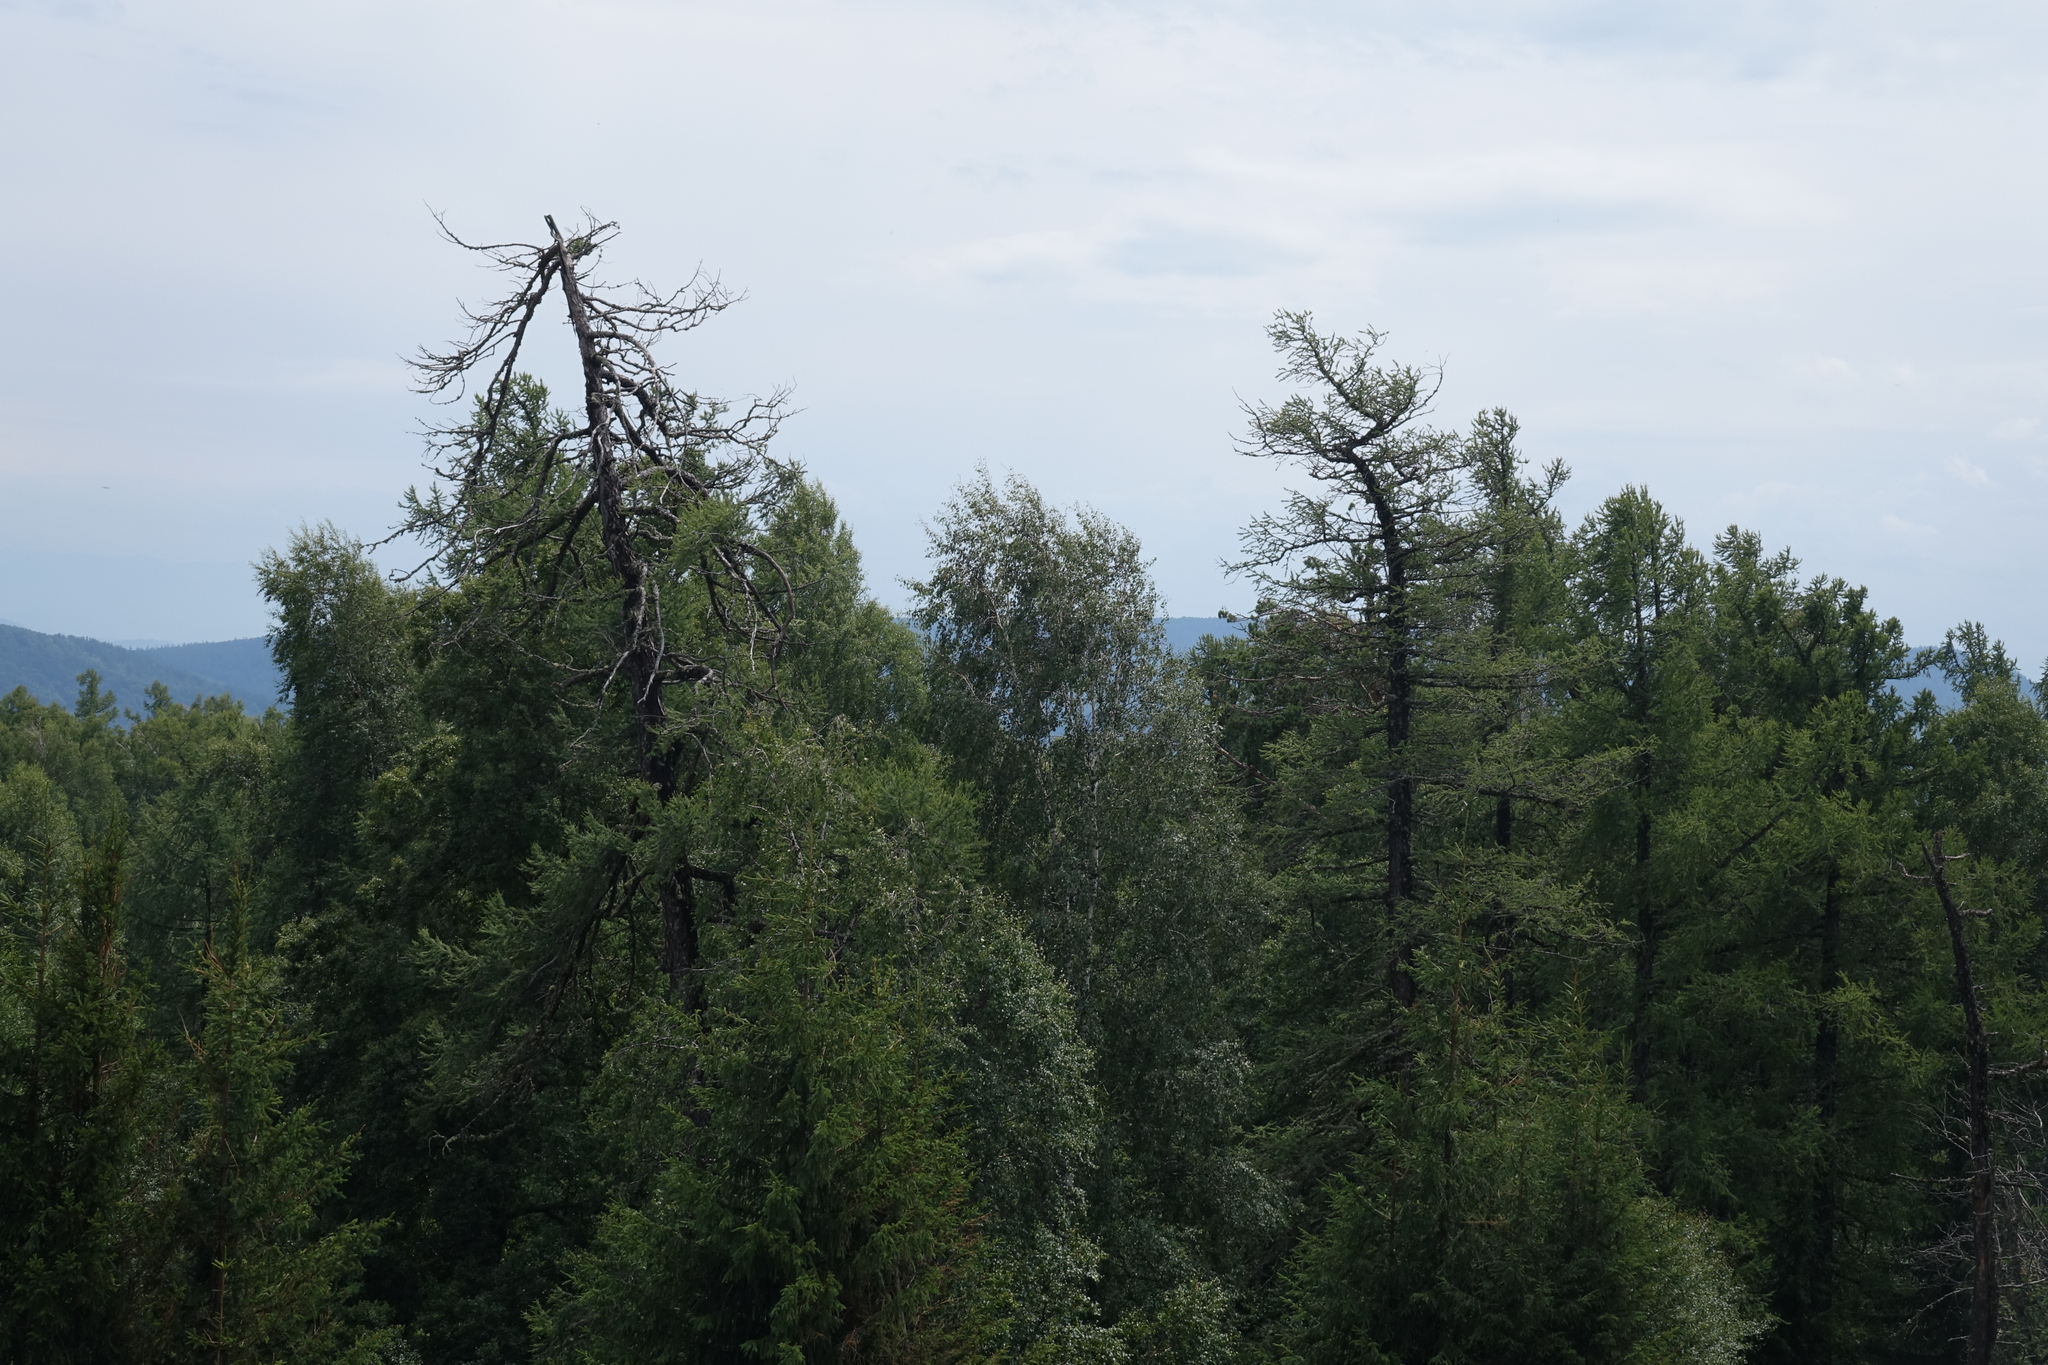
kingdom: Plantae
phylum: Tracheophyta
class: Pinopsida
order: Pinales
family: Pinaceae
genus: Larix
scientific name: Larix sibirica
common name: Siberian larch
